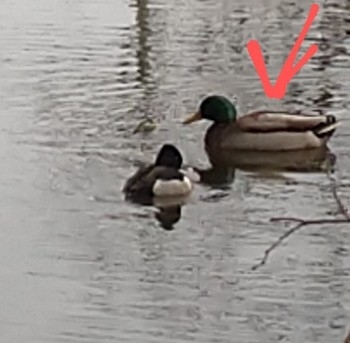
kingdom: Animalia
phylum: Chordata
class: Aves
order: Anseriformes
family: Anatidae
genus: Anas
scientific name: Anas platyrhynchos
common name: Mallard
